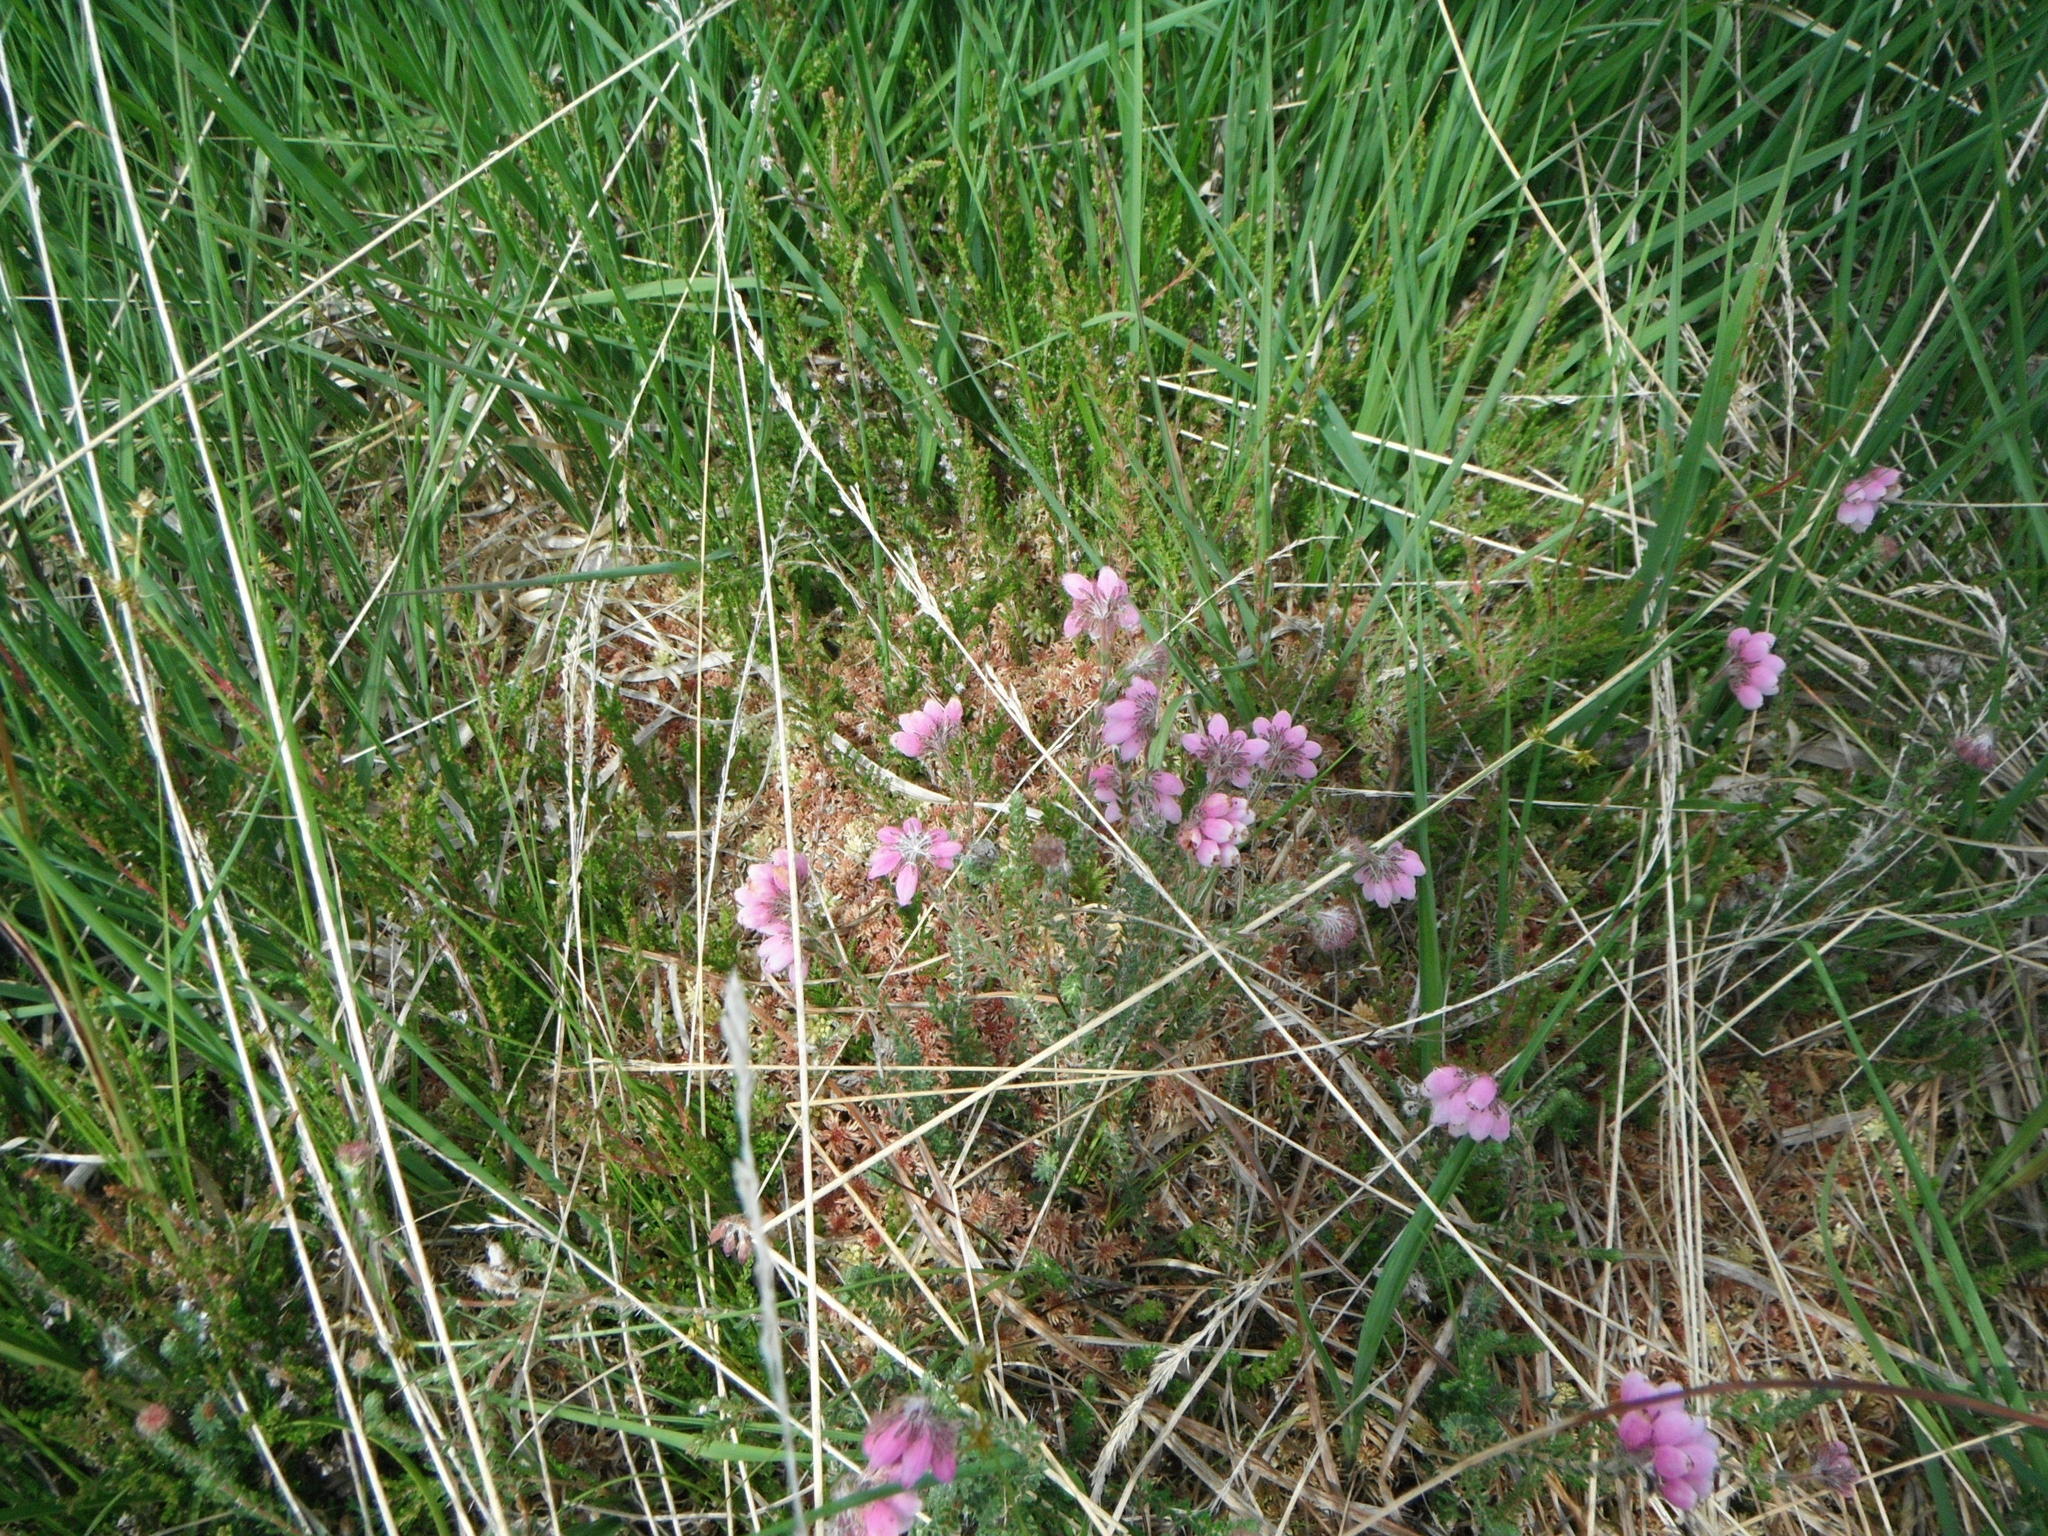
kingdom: Plantae
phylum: Tracheophyta
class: Magnoliopsida
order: Ericales
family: Ericaceae
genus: Erica
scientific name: Erica tetralix
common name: Cross-leaved heath
